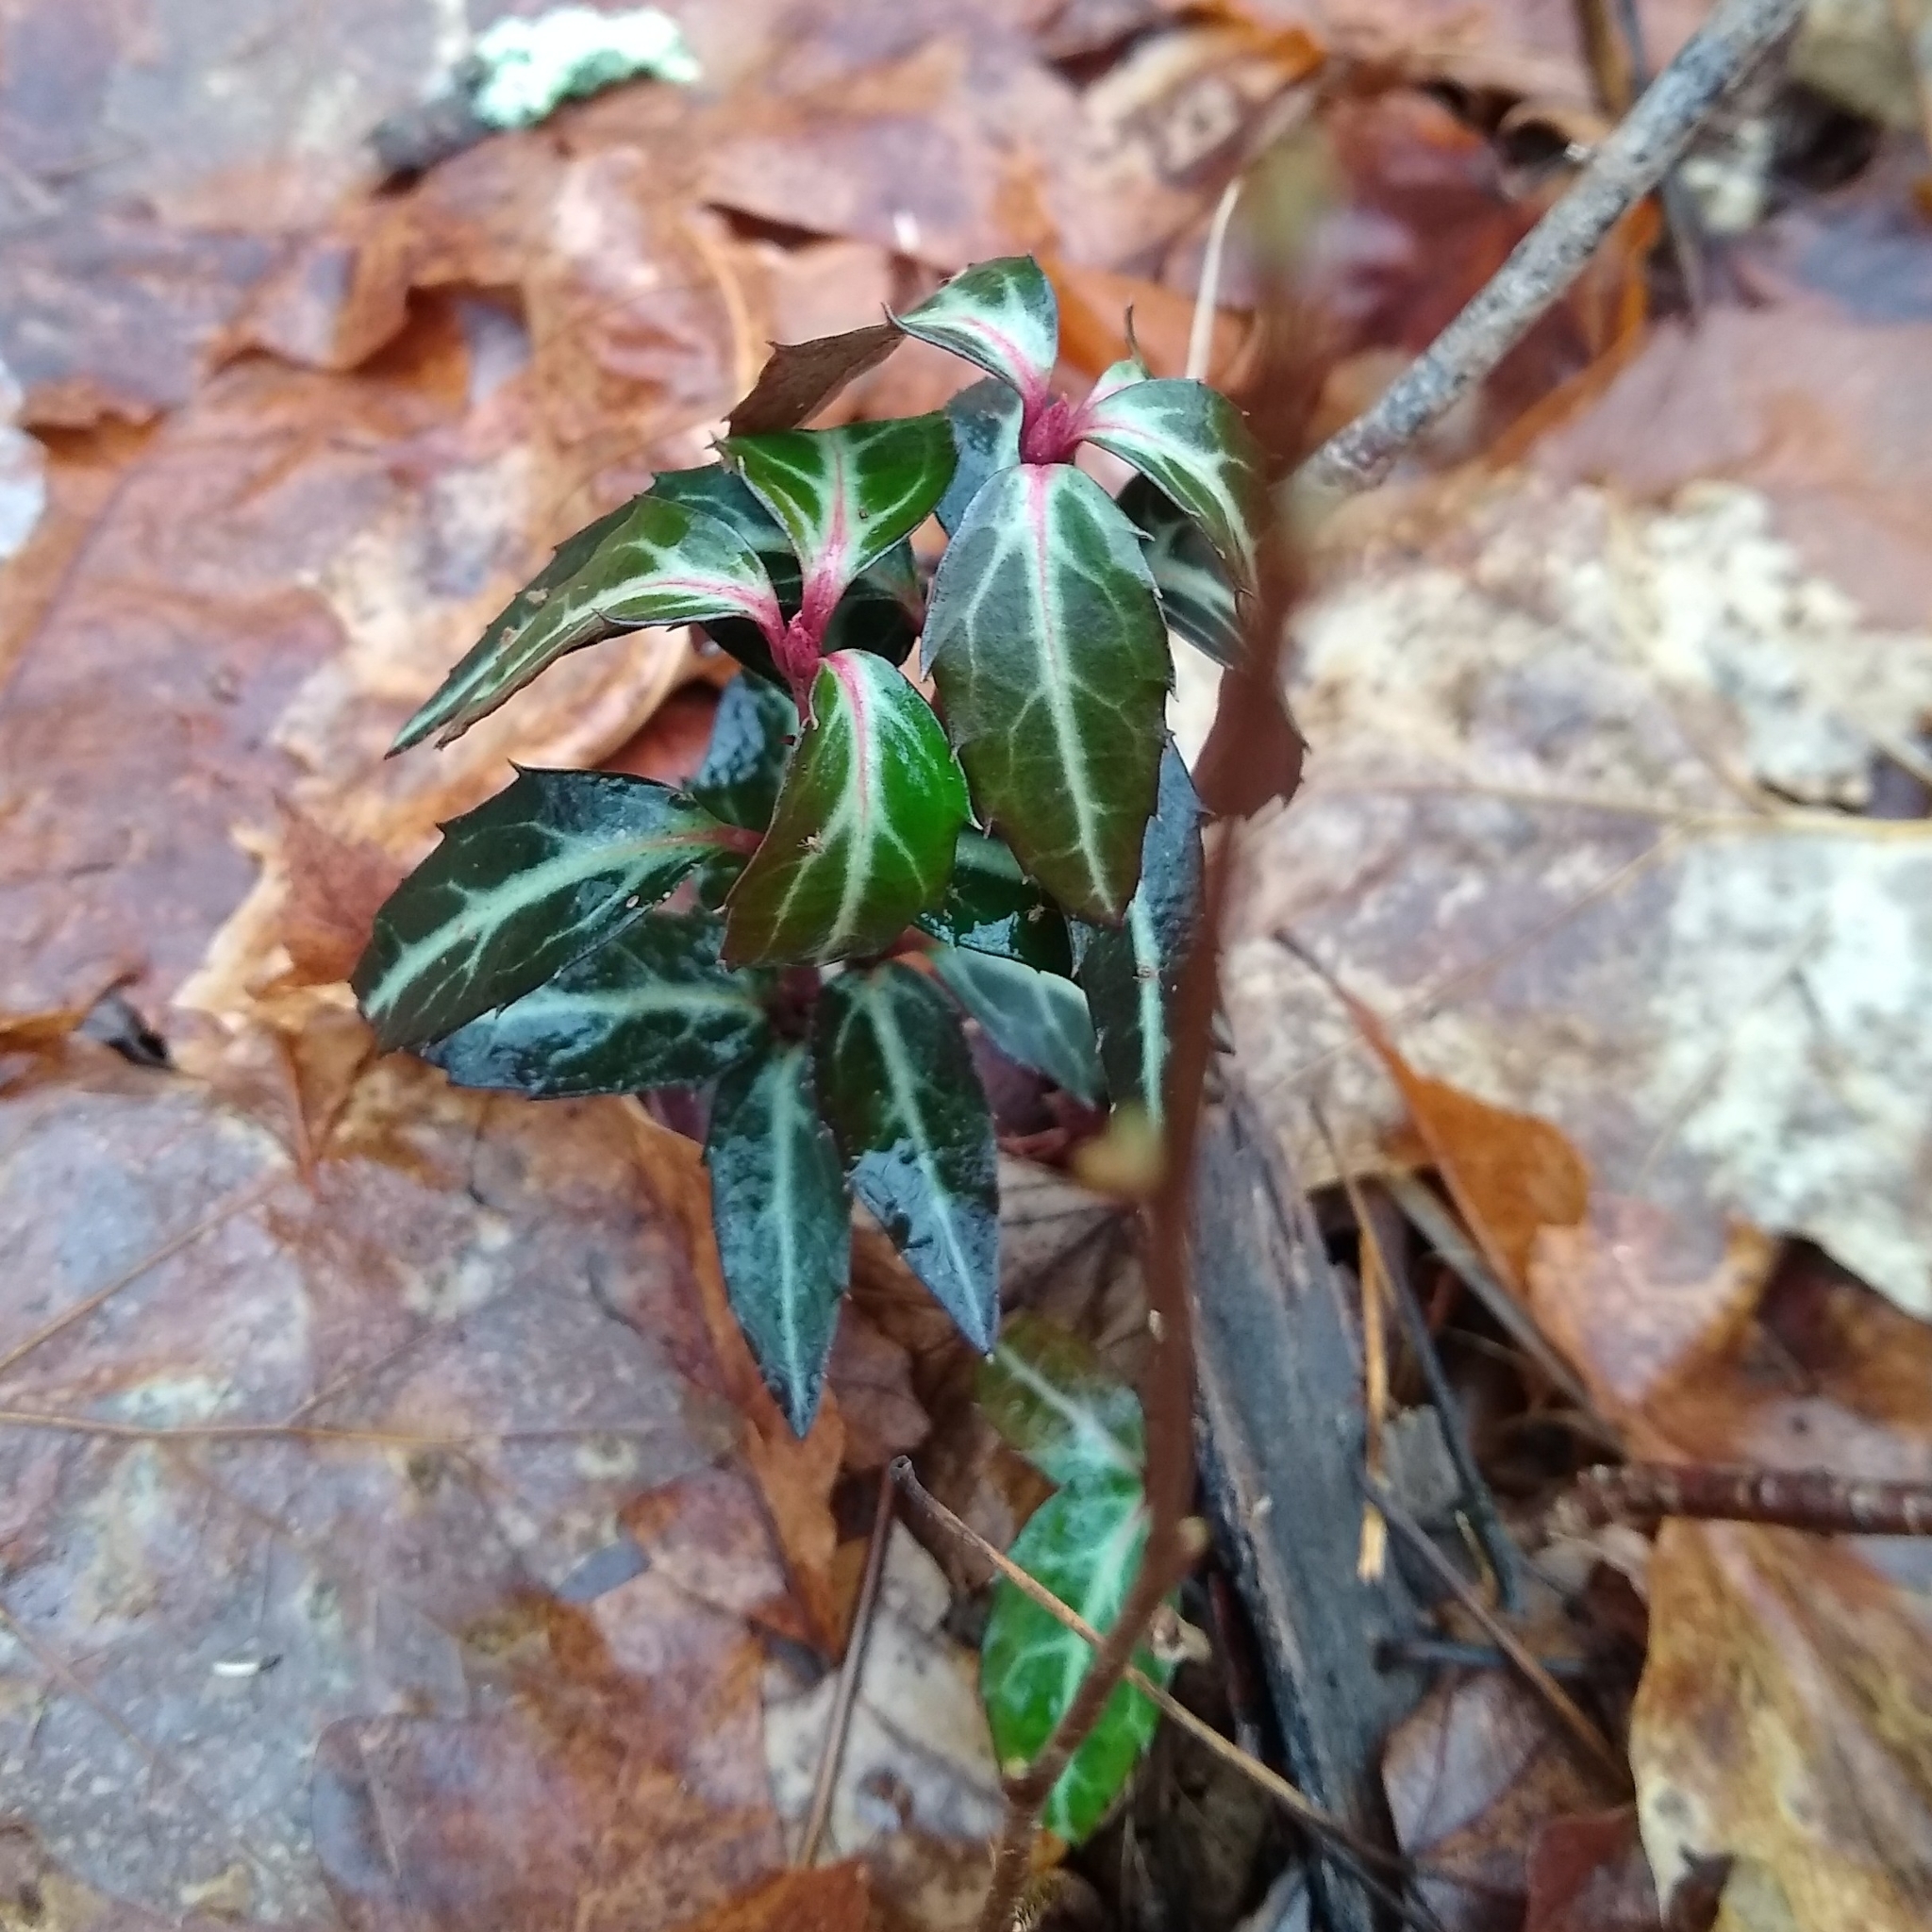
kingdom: Plantae
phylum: Tracheophyta
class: Magnoliopsida
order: Ericales
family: Ericaceae
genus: Chimaphila
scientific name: Chimaphila maculata
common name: Spotted pipsissewa
